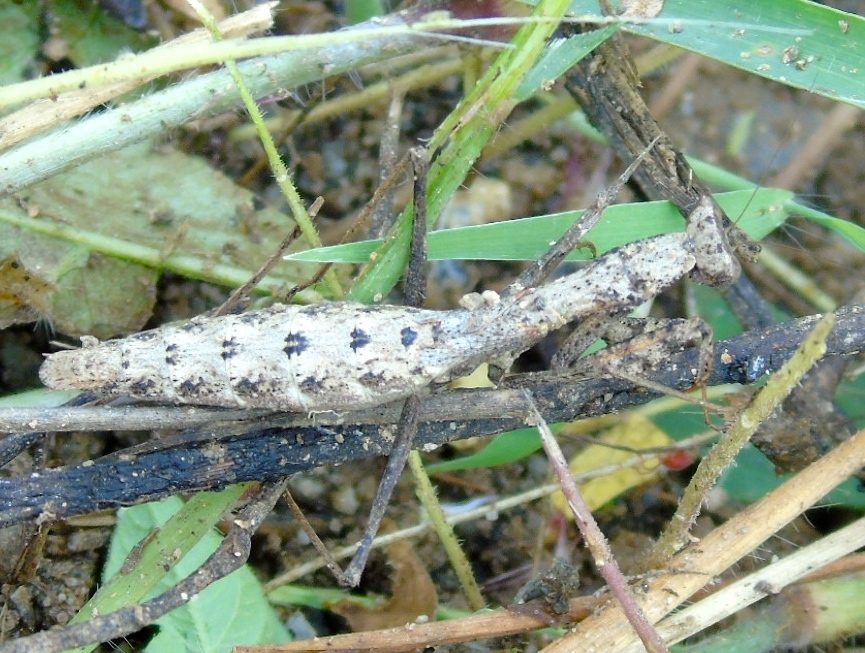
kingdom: Animalia
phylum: Arthropoda
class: Insecta
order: Mantodea
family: Amelidae
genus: Yersinia
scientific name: Yersinia mexicana
